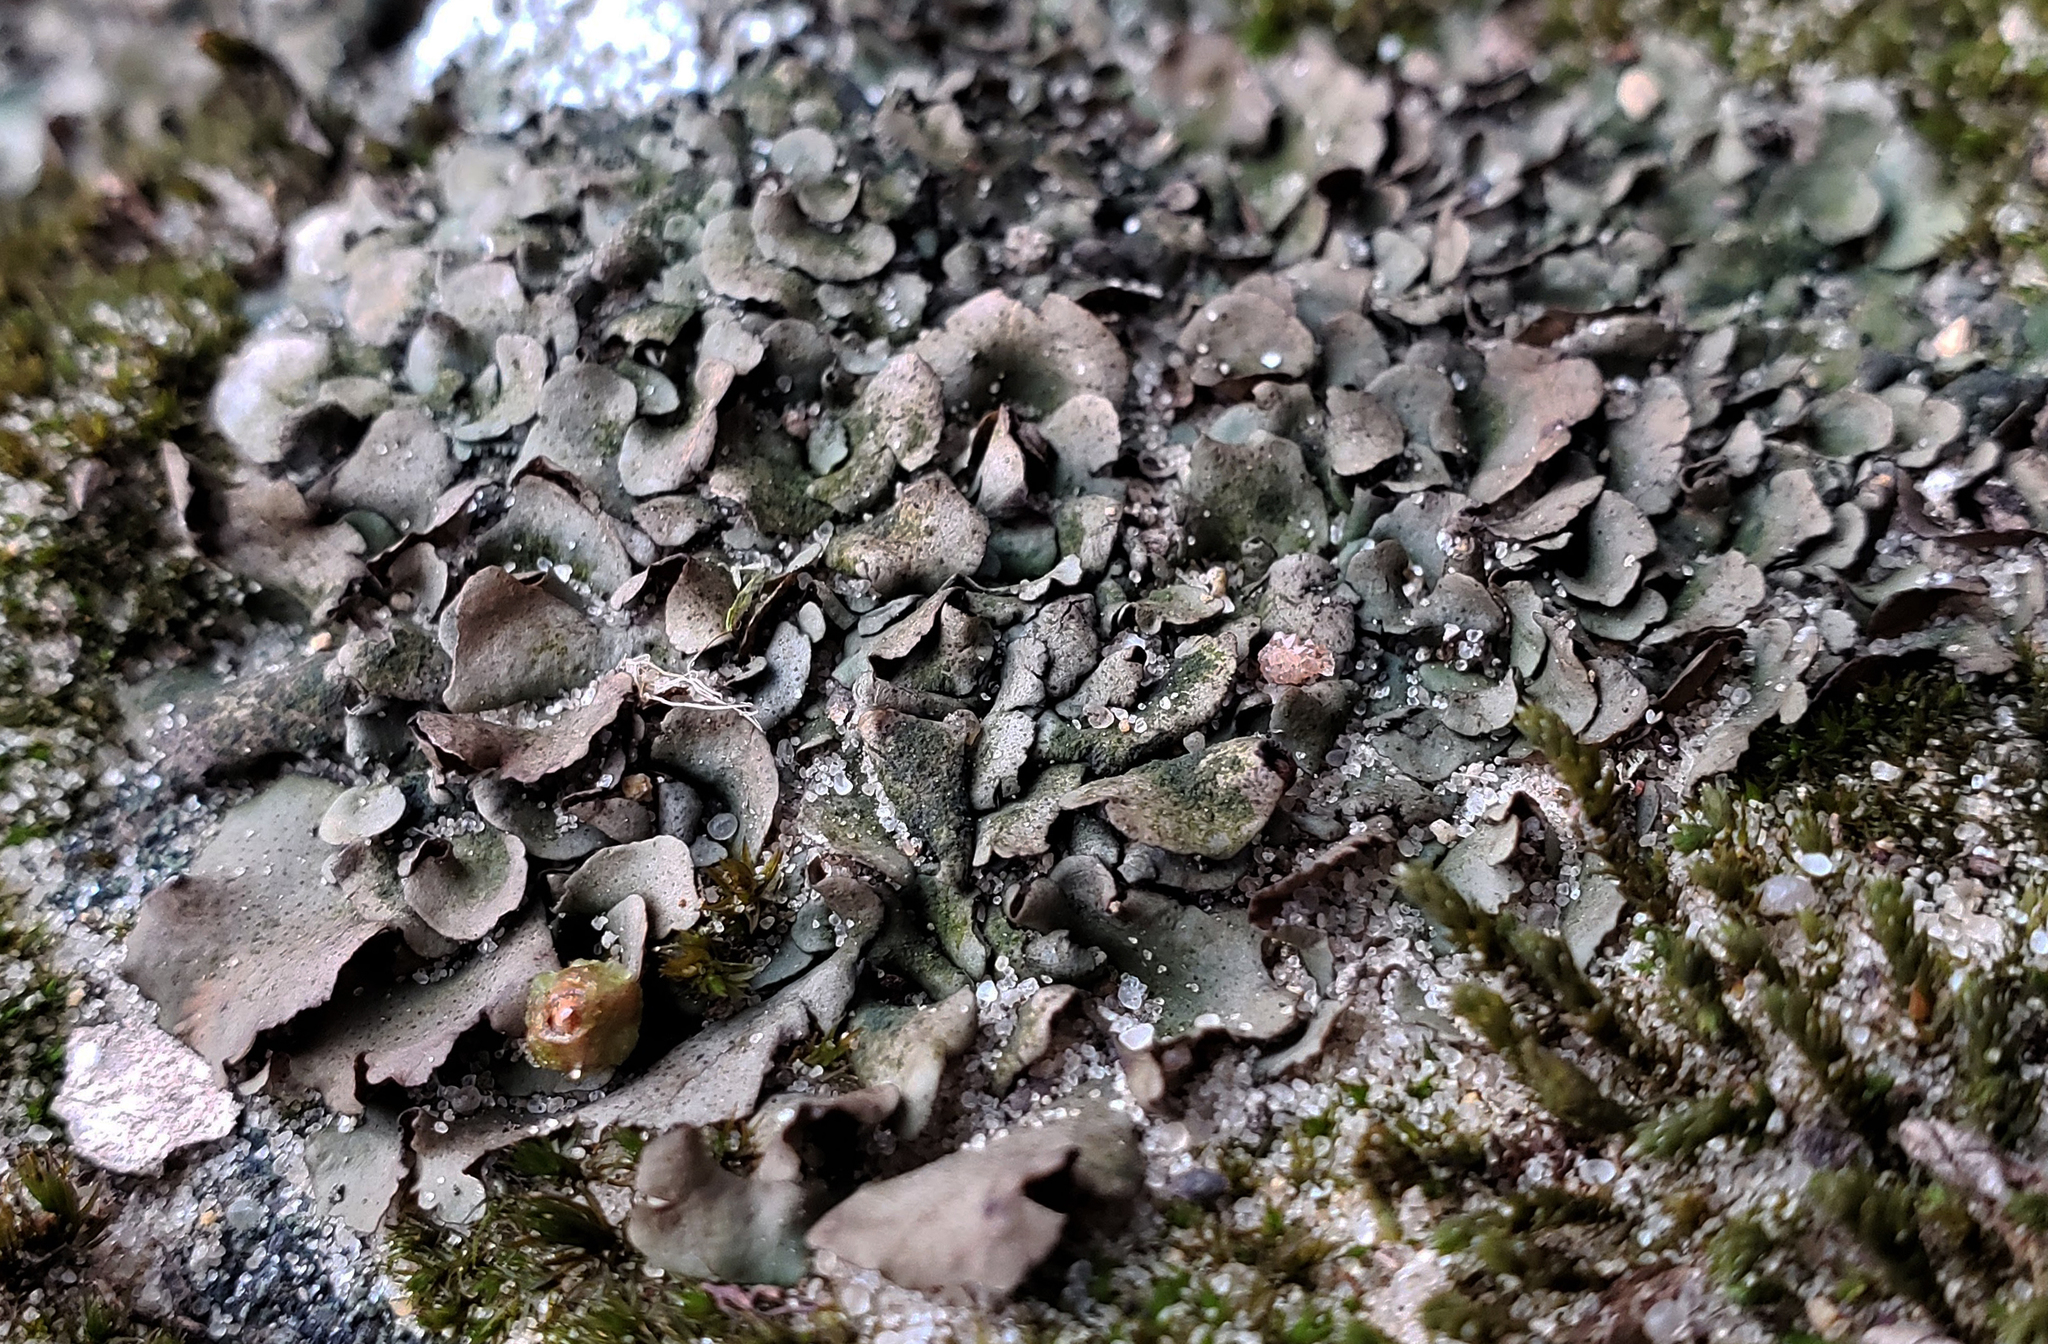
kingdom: Fungi
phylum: Ascomycota
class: Eurotiomycetes
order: Verrucariales
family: Verrucariaceae
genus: Dermatocarpon
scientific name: Dermatocarpon muhlenbergii
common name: Muhlenberg's stippleback lichen
